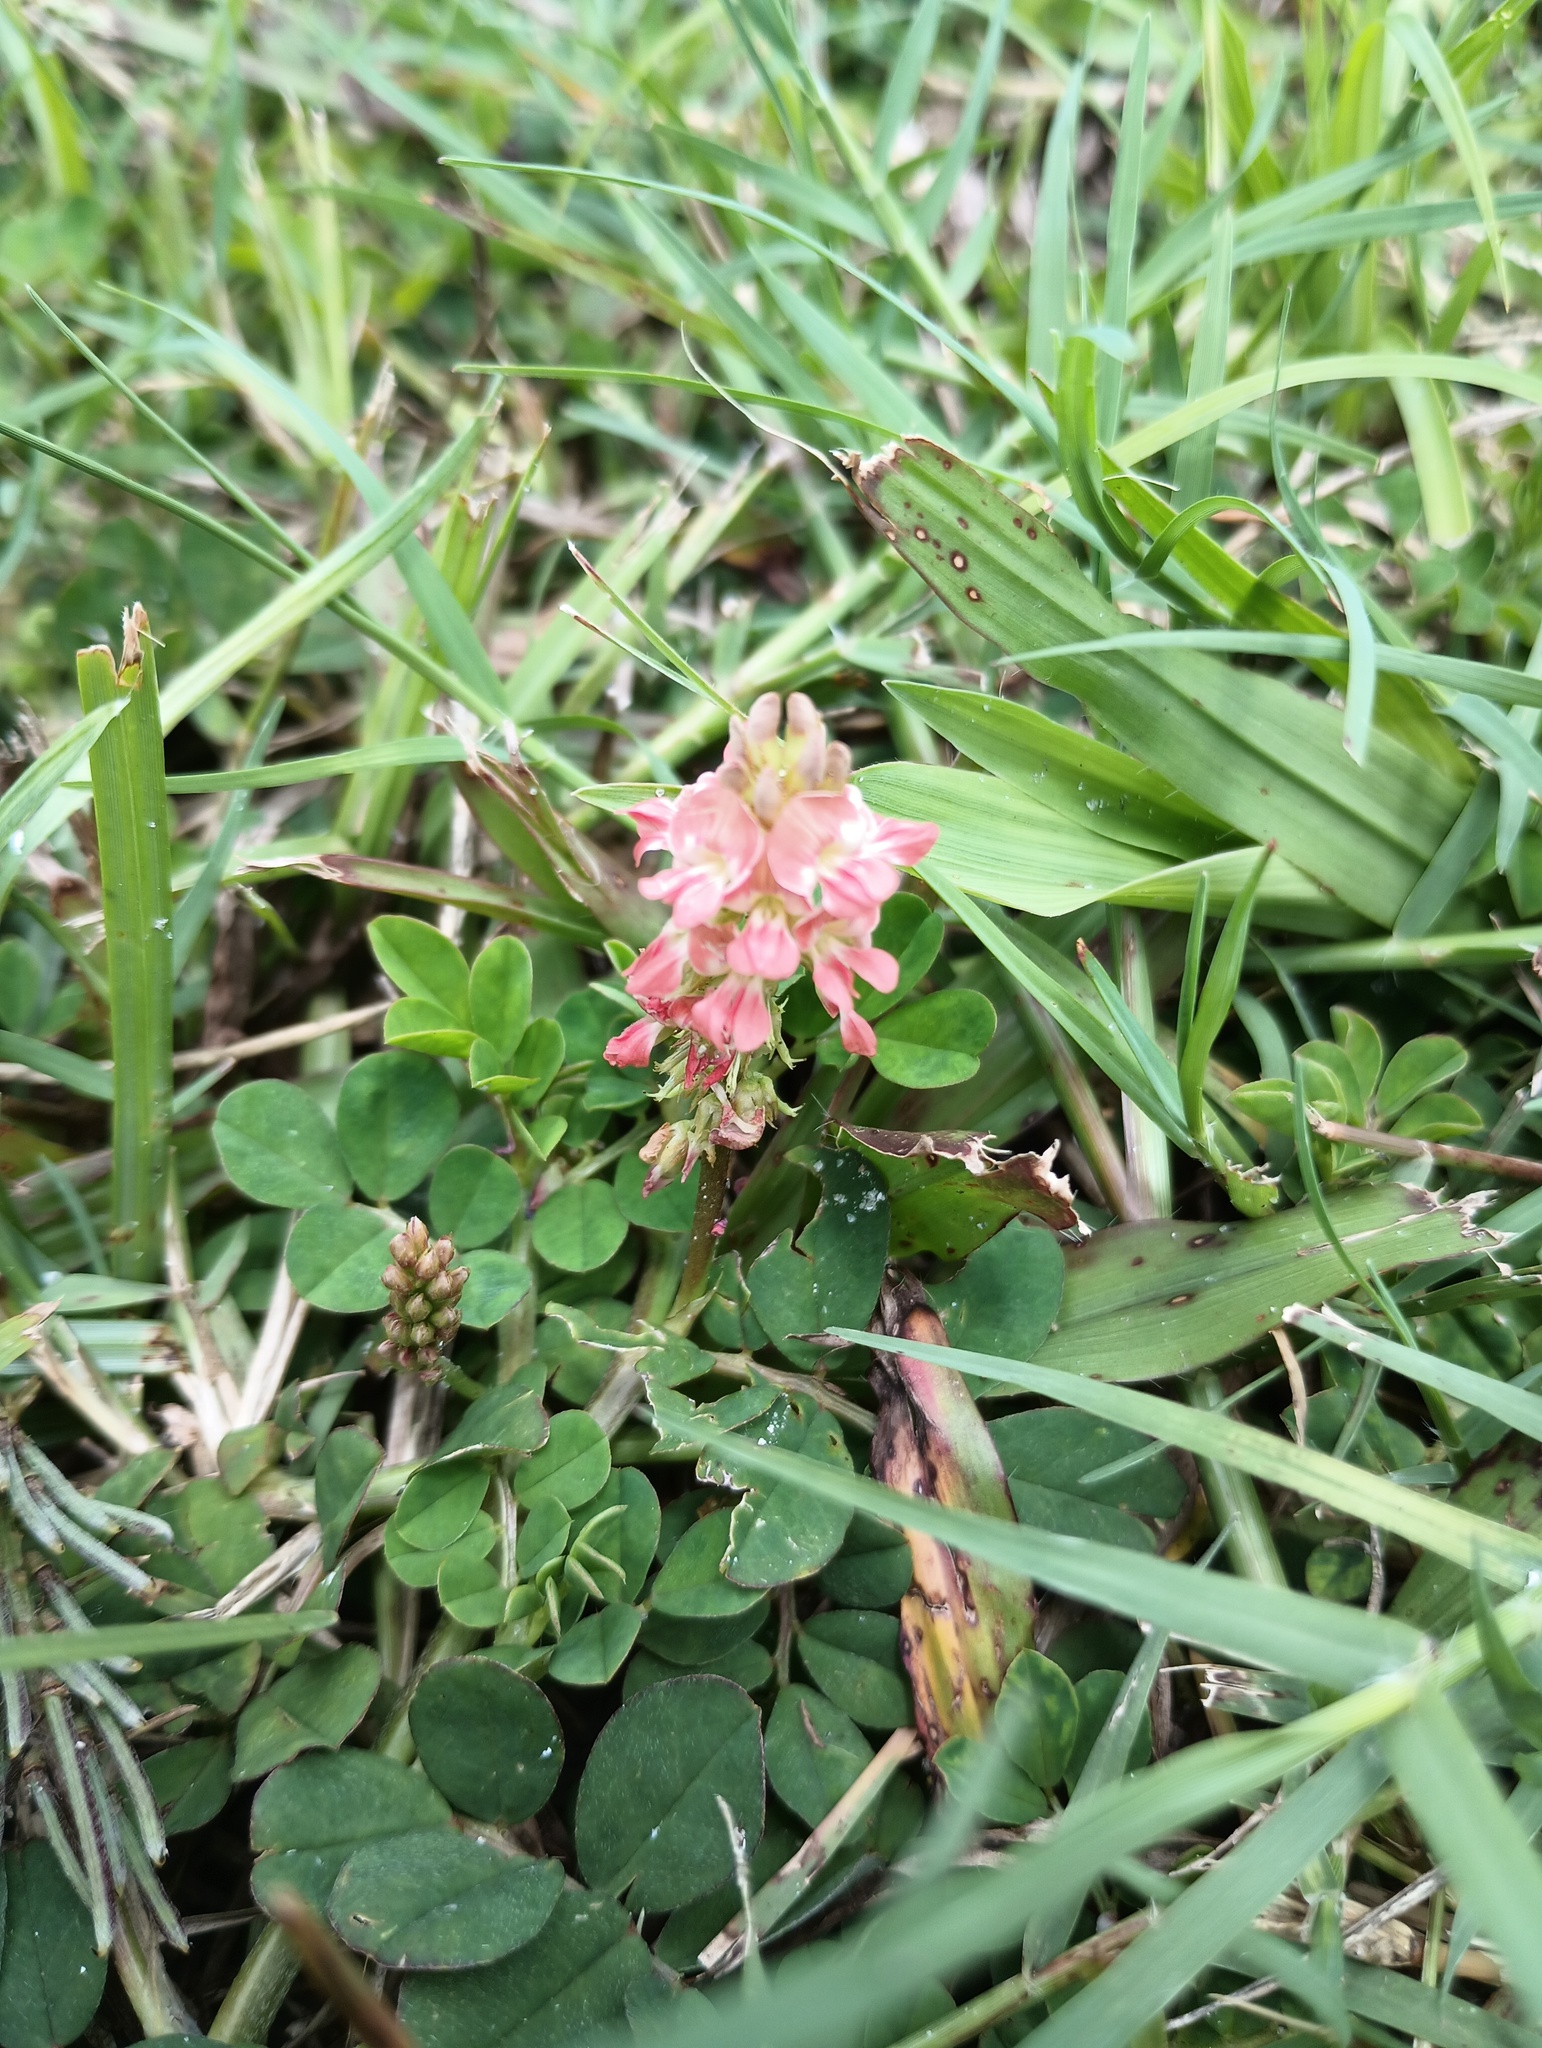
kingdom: Plantae
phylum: Tracheophyta
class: Magnoliopsida
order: Fabales
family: Fabaceae
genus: Indigofera
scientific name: Indigofera spicata
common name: Creeping indigo
